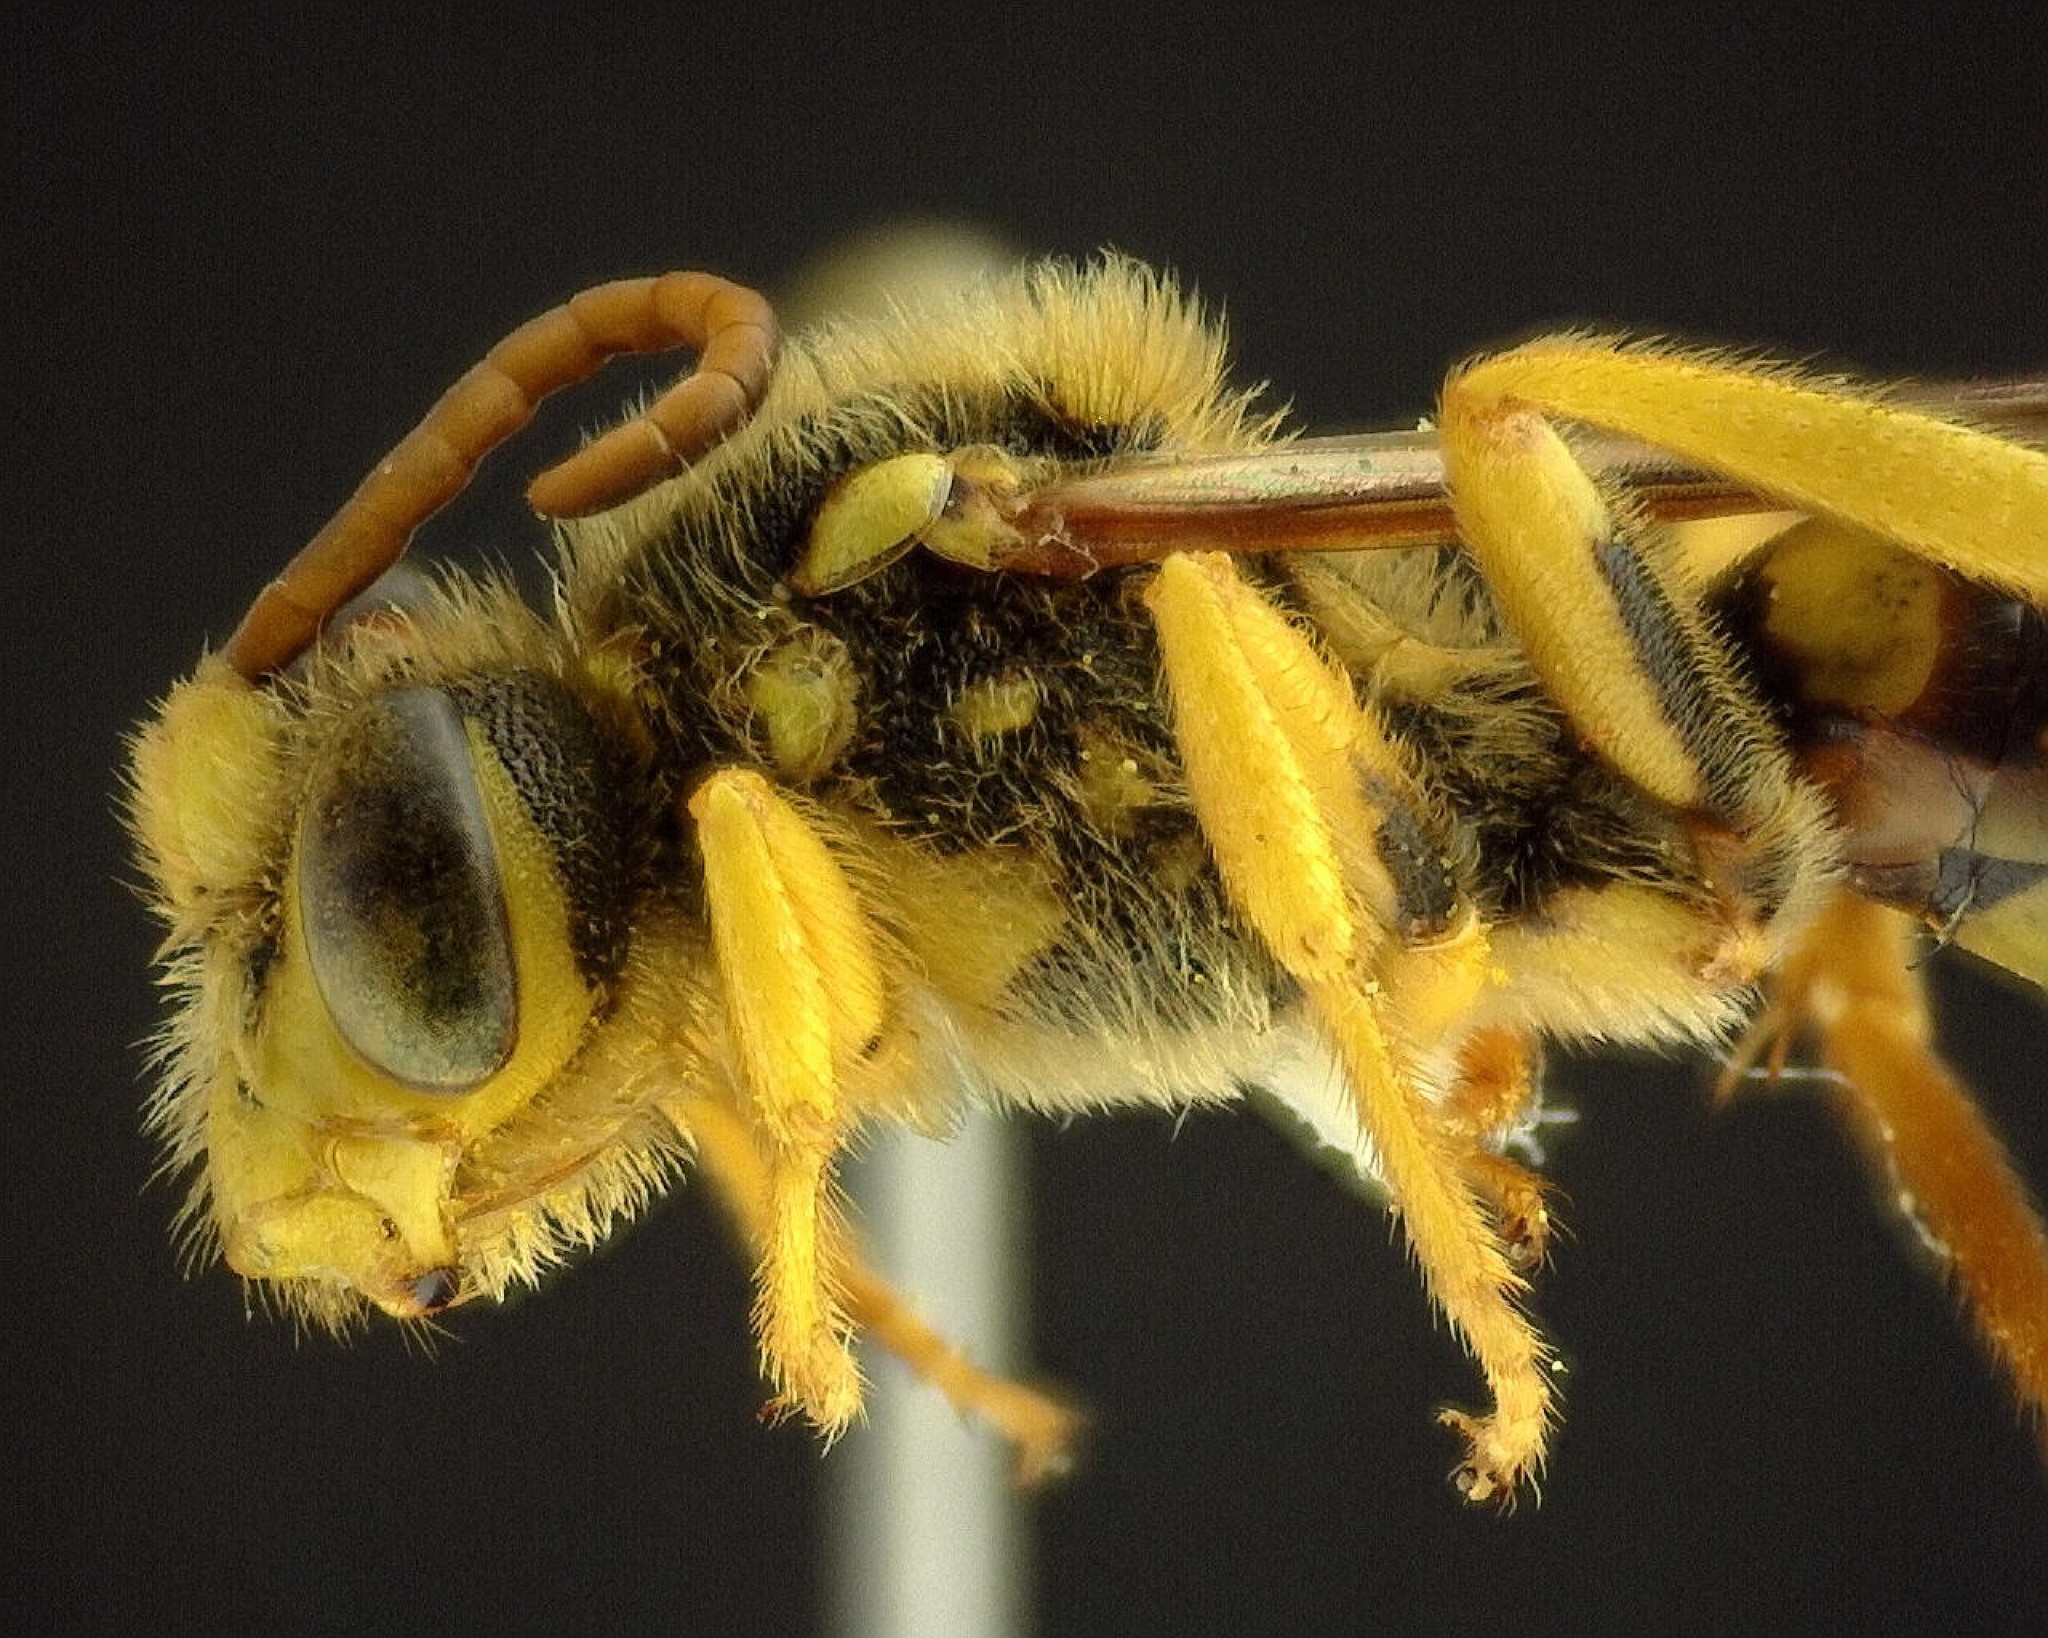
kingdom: Animalia
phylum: Arthropoda
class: Insecta
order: Hymenoptera
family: Apidae
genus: Nomada
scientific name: Nomada
